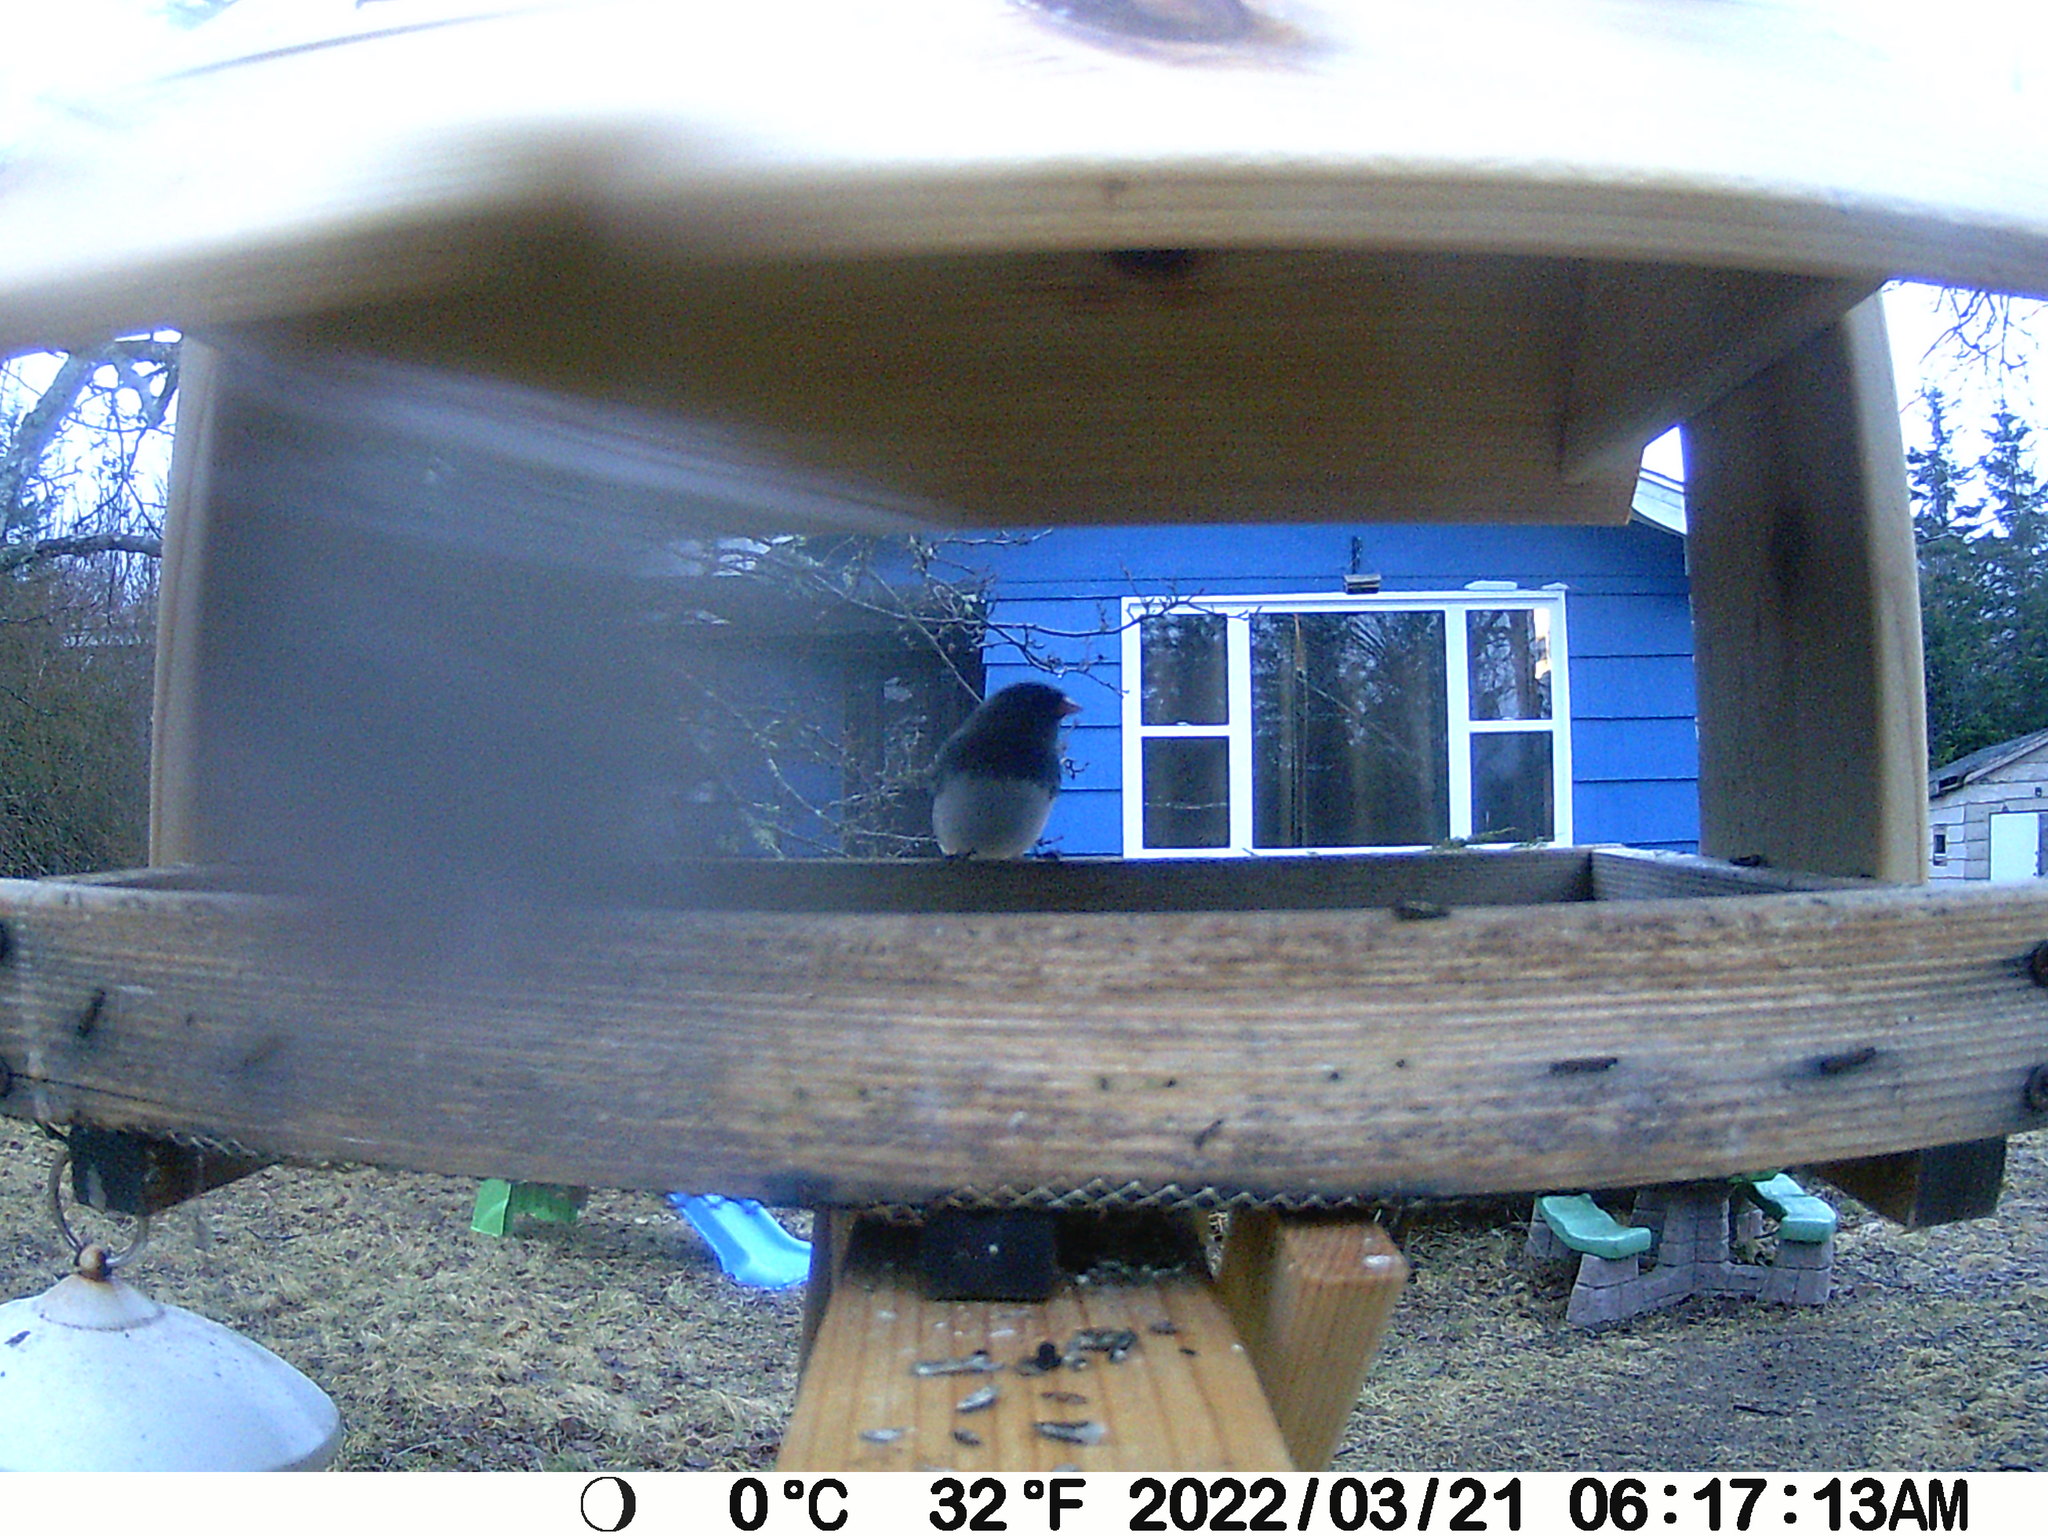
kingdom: Animalia
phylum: Chordata
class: Aves
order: Passeriformes
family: Passerellidae
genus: Junco
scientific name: Junco hyemalis
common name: Dark-eyed junco
